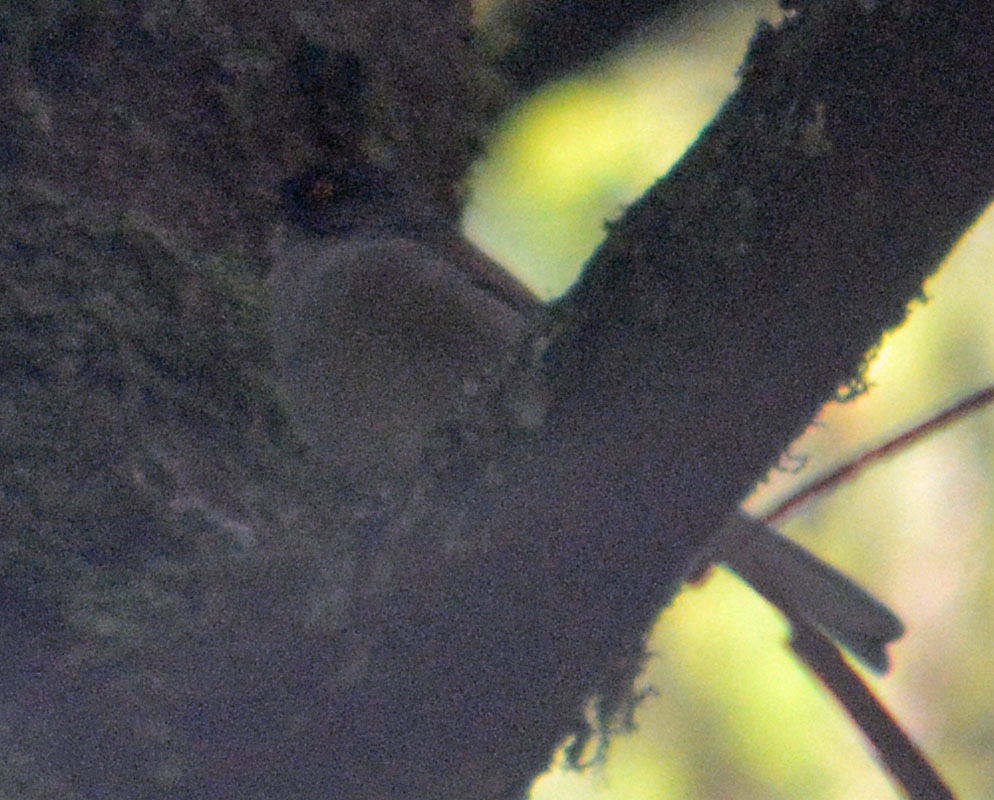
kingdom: Animalia
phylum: Chordata
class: Aves
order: Passeriformes
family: Passerellidae
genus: Junco
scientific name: Junco phaeonotus
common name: Yellow-eyed junco
